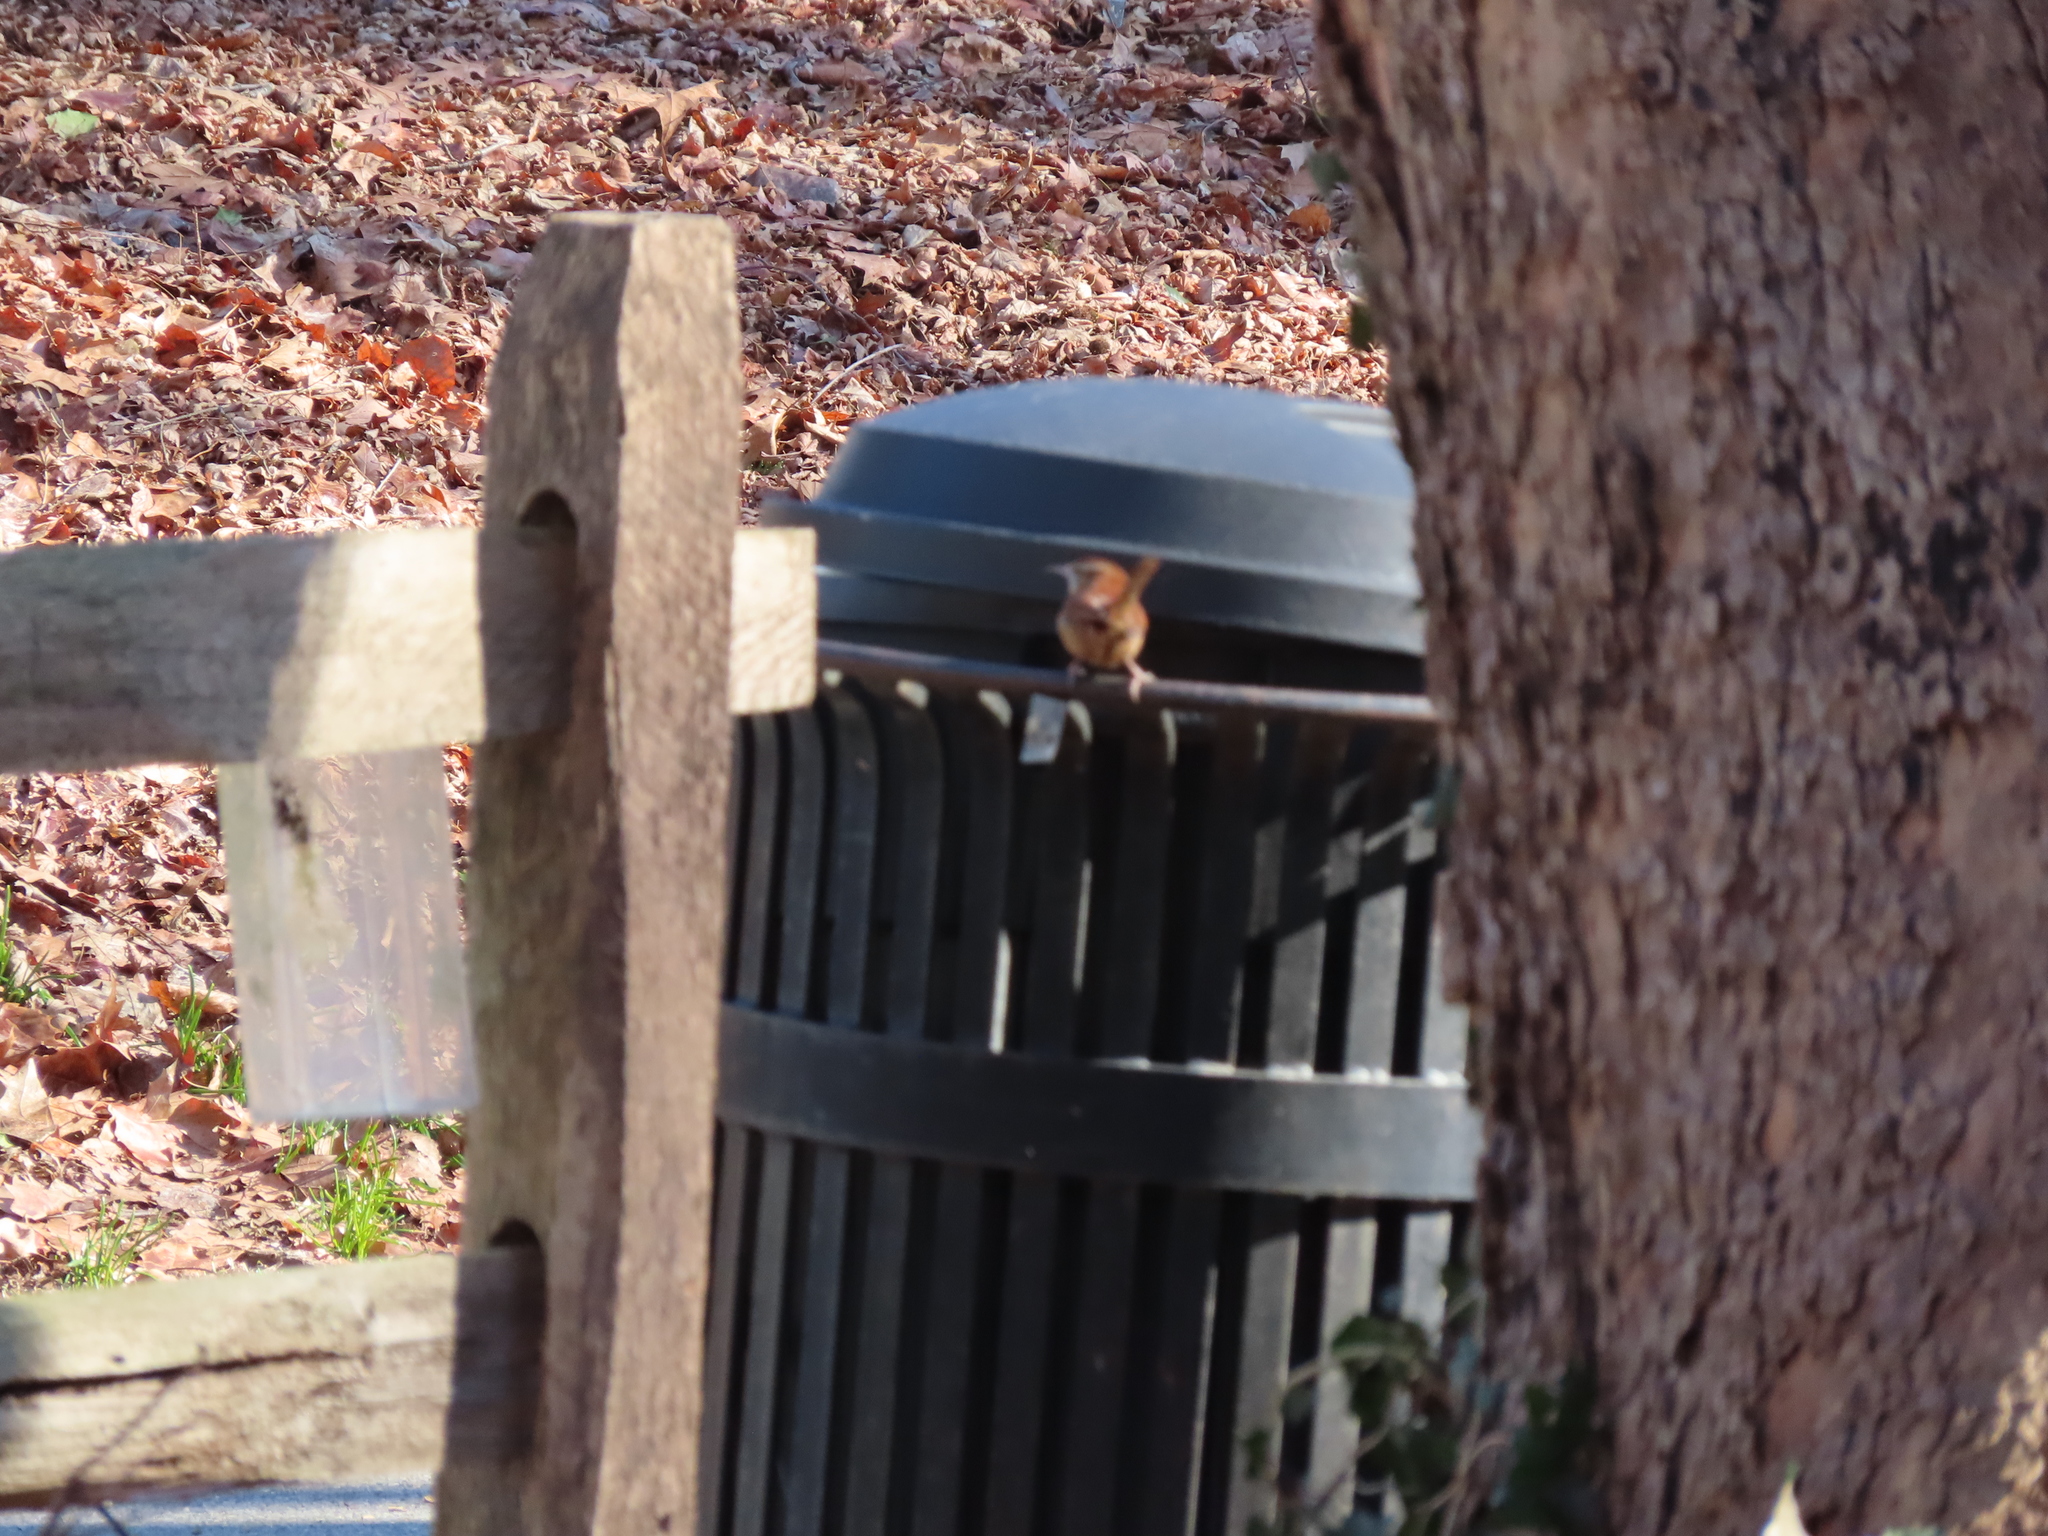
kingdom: Animalia
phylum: Chordata
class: Aves
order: Passeriformes
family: Troglodytidae
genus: Thryothorus
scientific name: Thryothorus ludovicianus
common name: Carolina wren
